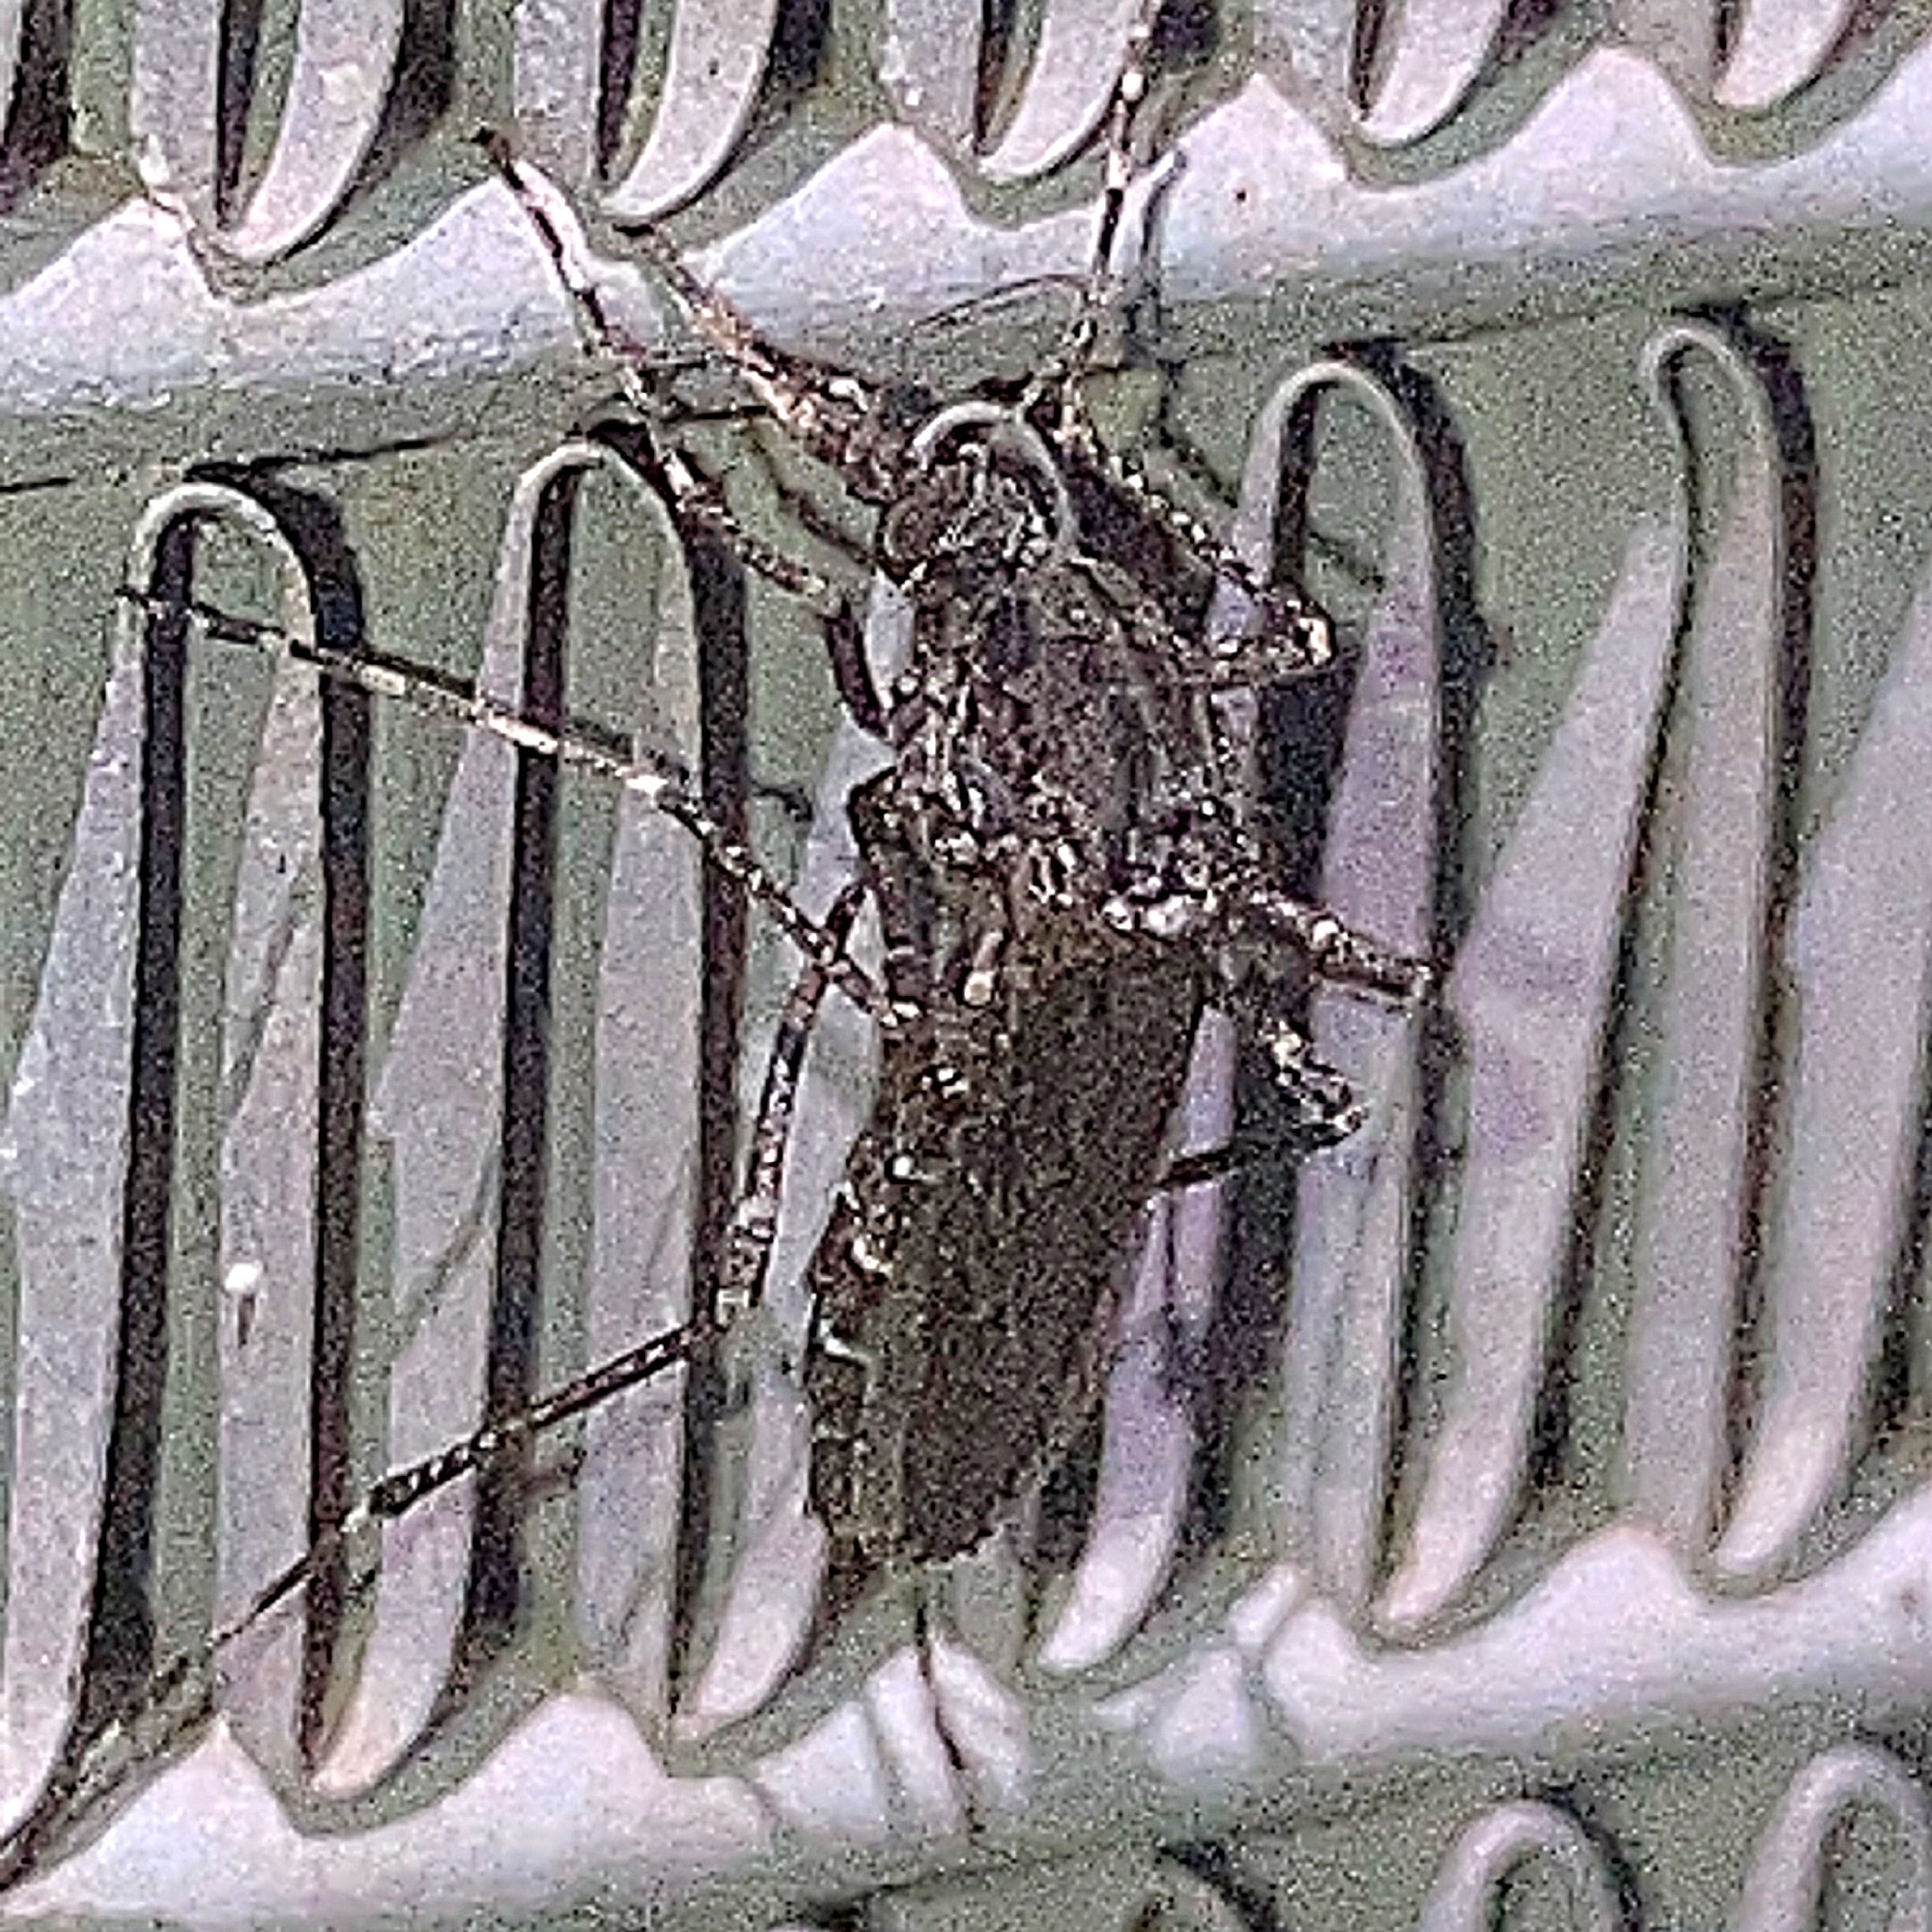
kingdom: Animalia
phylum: Arthropoda
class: Insecta
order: Diptera
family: Culicidae
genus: Psorophora
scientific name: Psorophora columbiae
